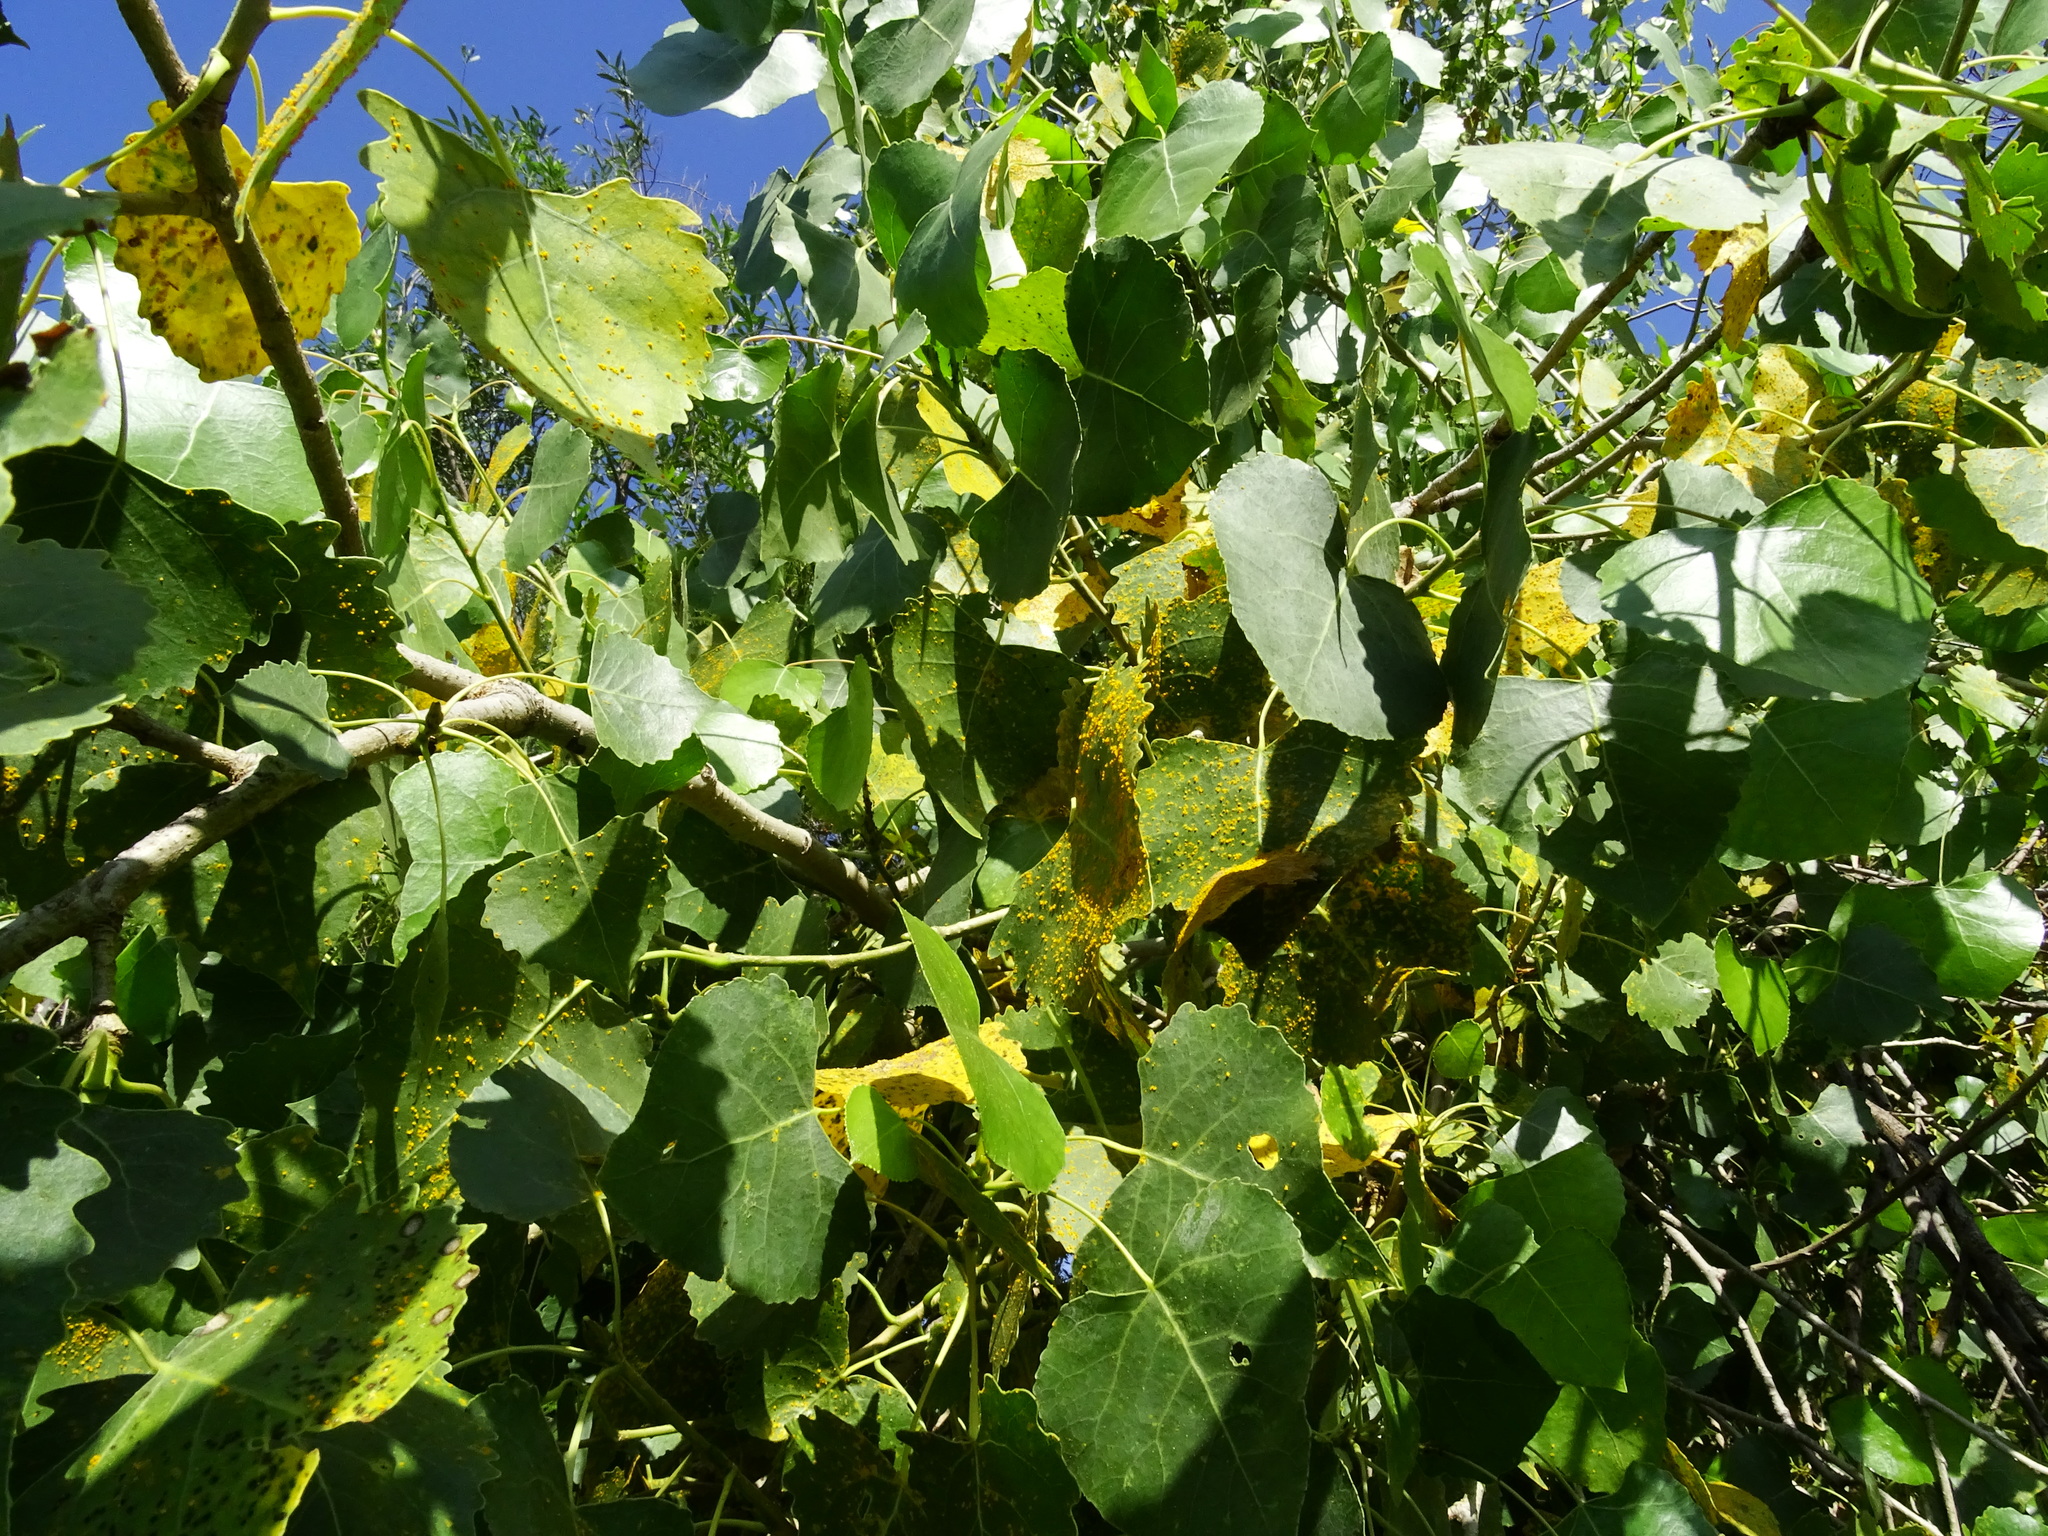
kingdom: Plantae
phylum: Tracheophyta
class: Magnoliopsida
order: Malpighiales
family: Salicaceae
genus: Populus
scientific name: Populus fremontii
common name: Fremont's cottonwood
